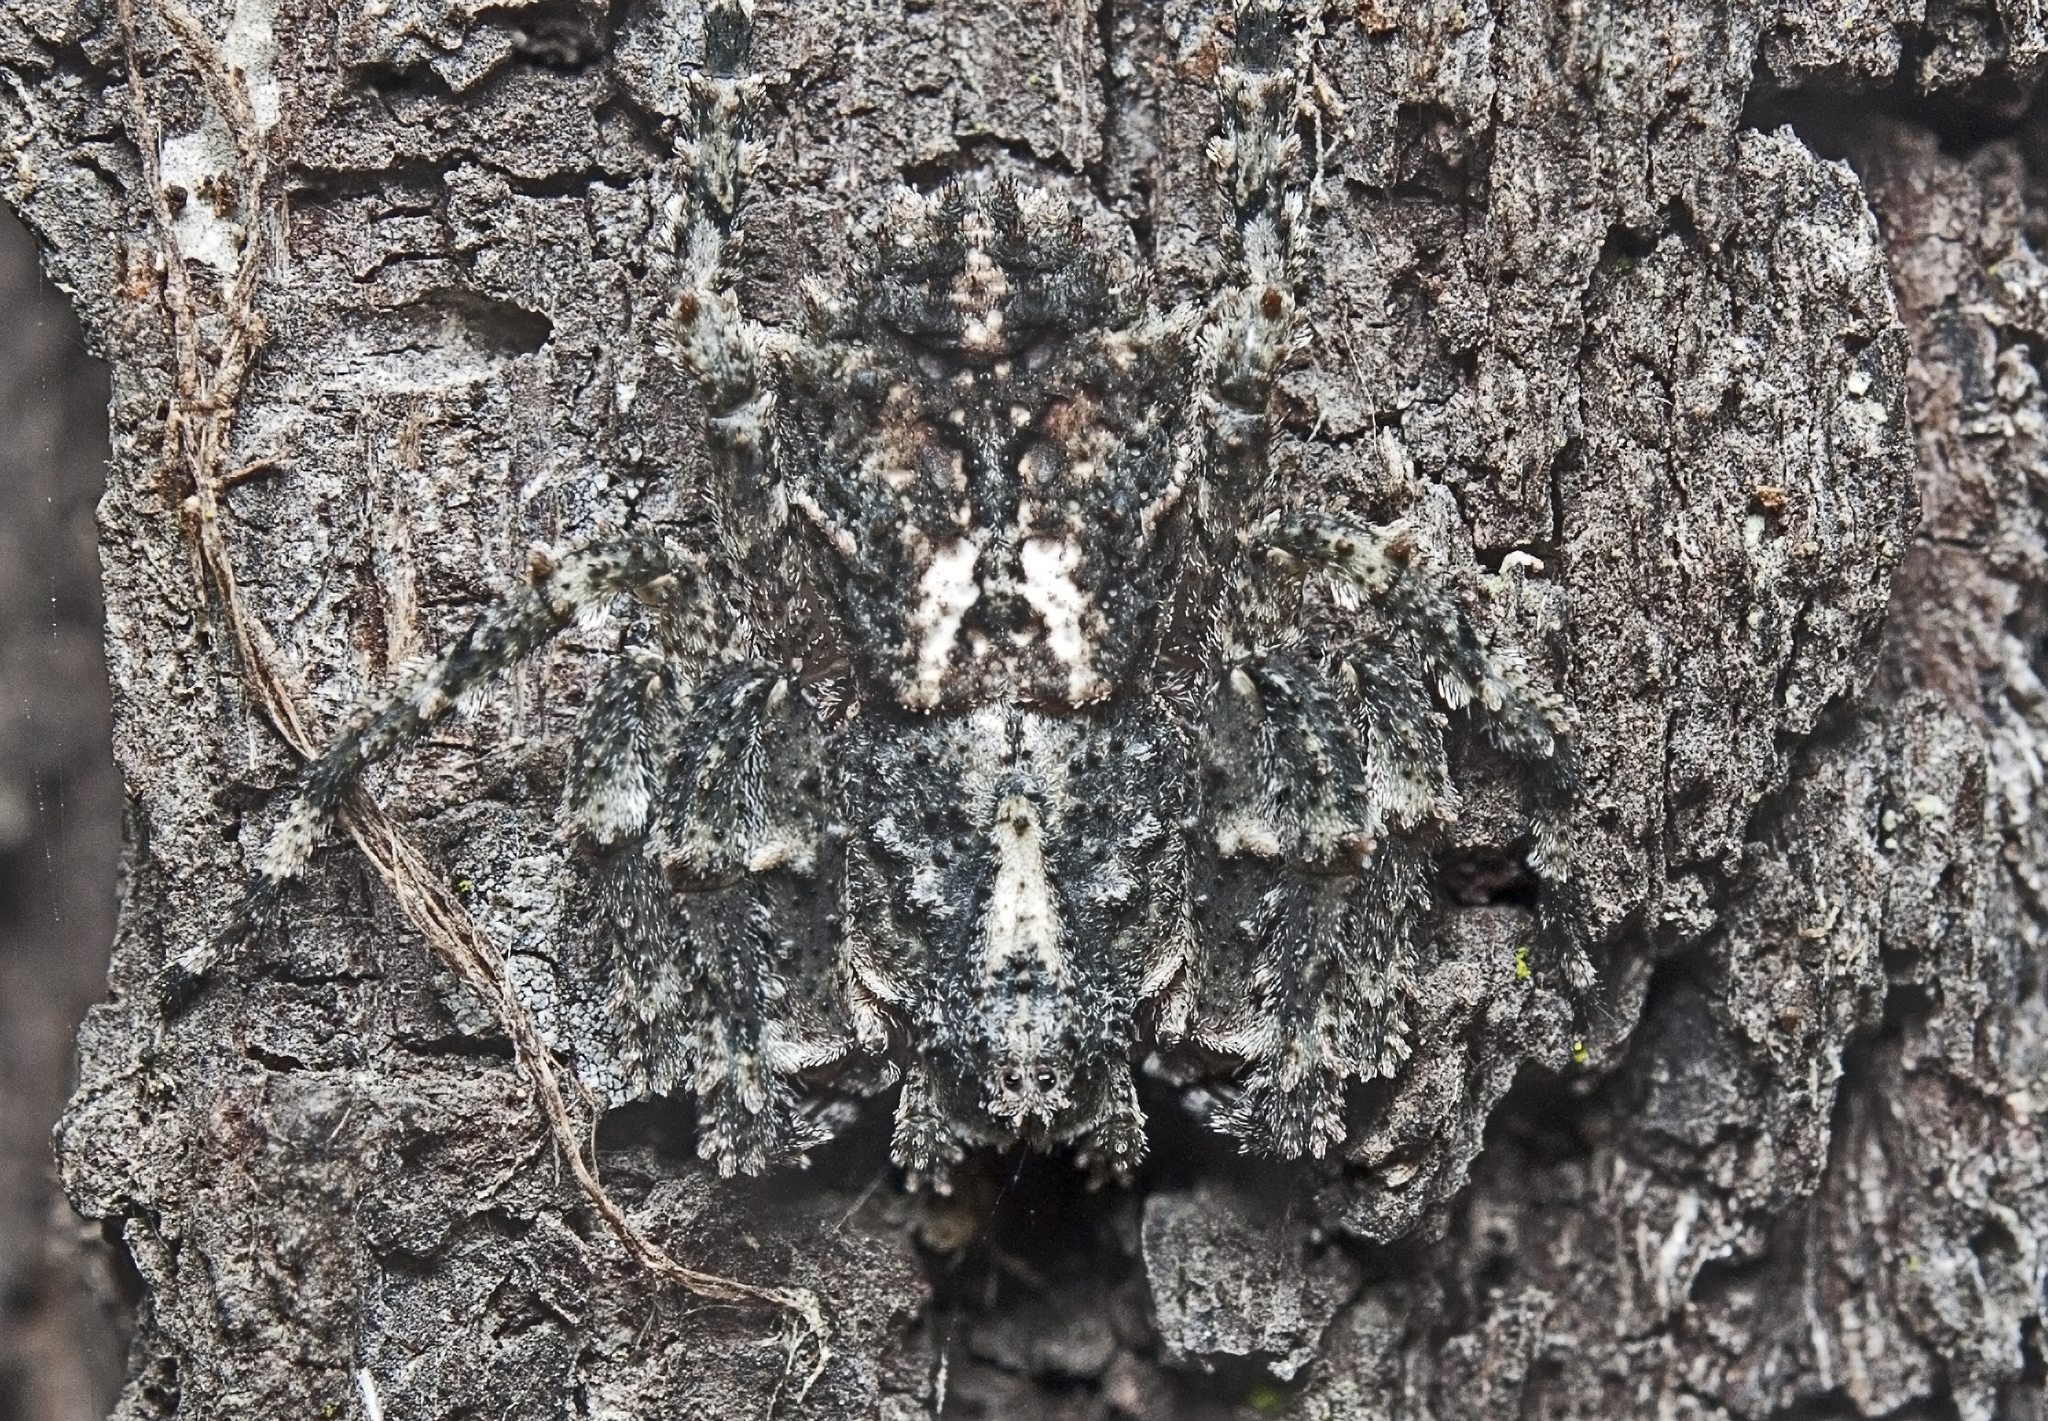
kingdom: Animalia
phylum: Arthropoda
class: Arachnida
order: Araneae
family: Thomisidae
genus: Stephanopis
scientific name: Stephanopis altifrons
